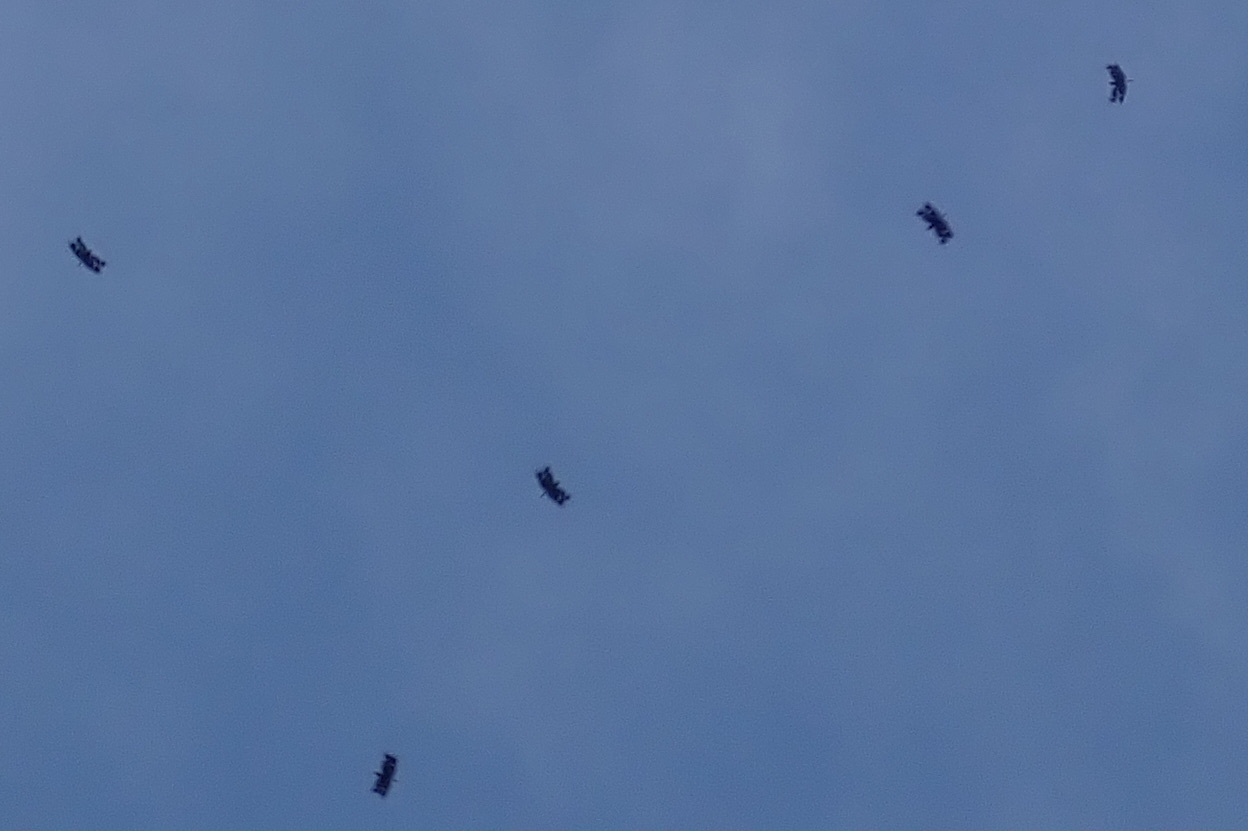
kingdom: Animalia
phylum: Arthropoda
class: Insecta
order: Odonata
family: Libellulidae
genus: Rhyothemis
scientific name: Rhyothemis fenestrina
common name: Skylight flutterer
